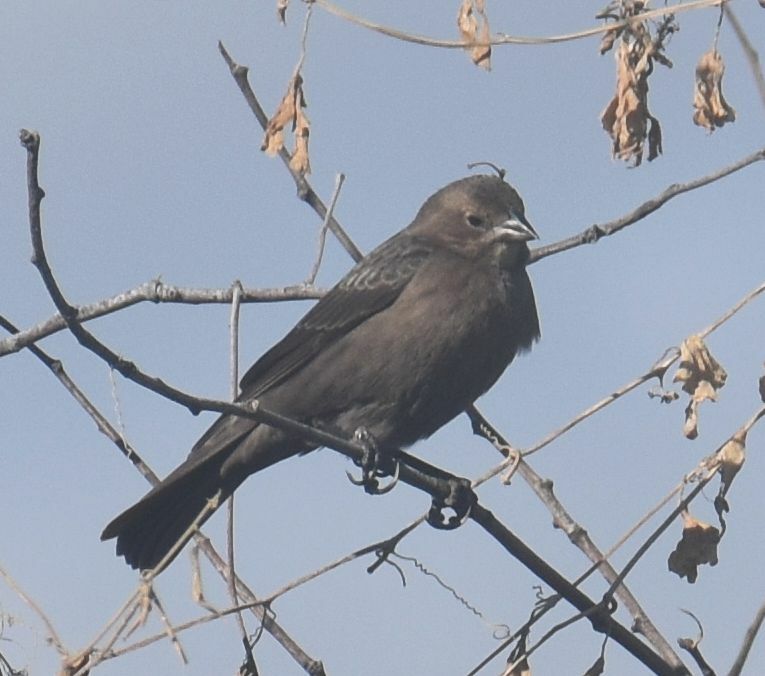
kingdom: Animalia
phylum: Chordata
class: Aves
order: Passeriformes
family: Icteridae
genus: Molothrus
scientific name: Molothrus ater
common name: Brown-headed cowbird
